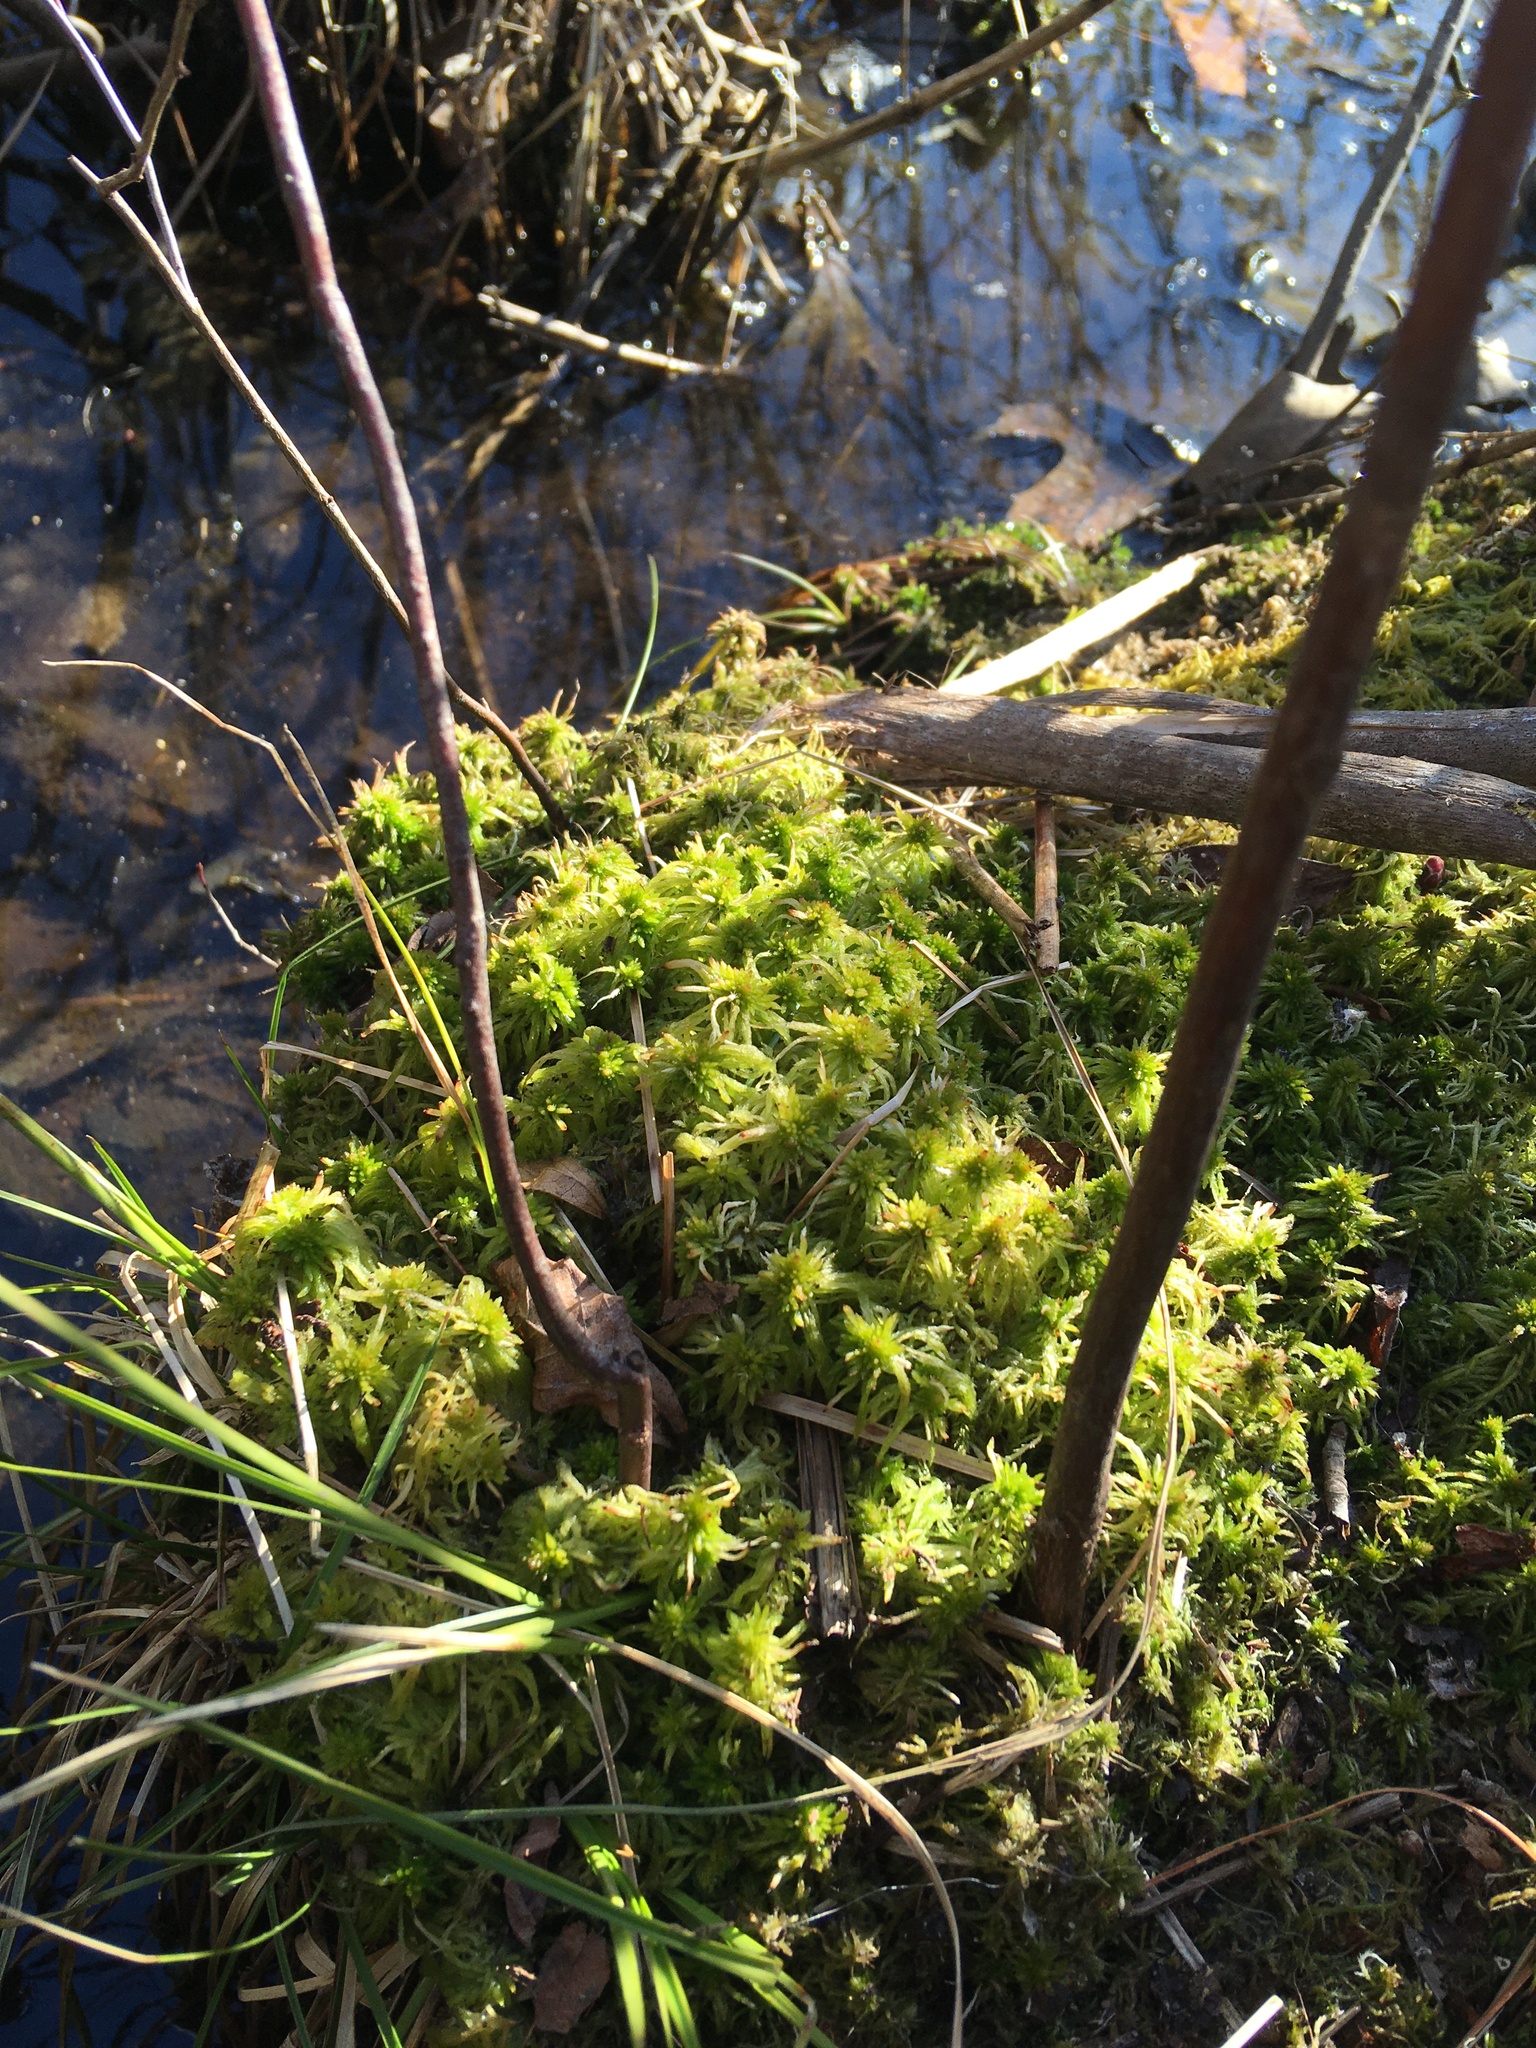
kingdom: Plantae
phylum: Bryophyta
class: Sphagnopsida
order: Sphagnales
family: Sphagnaceae
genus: Sphagnum
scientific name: Sphagnum fimbriatum
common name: Fringed peat moss
